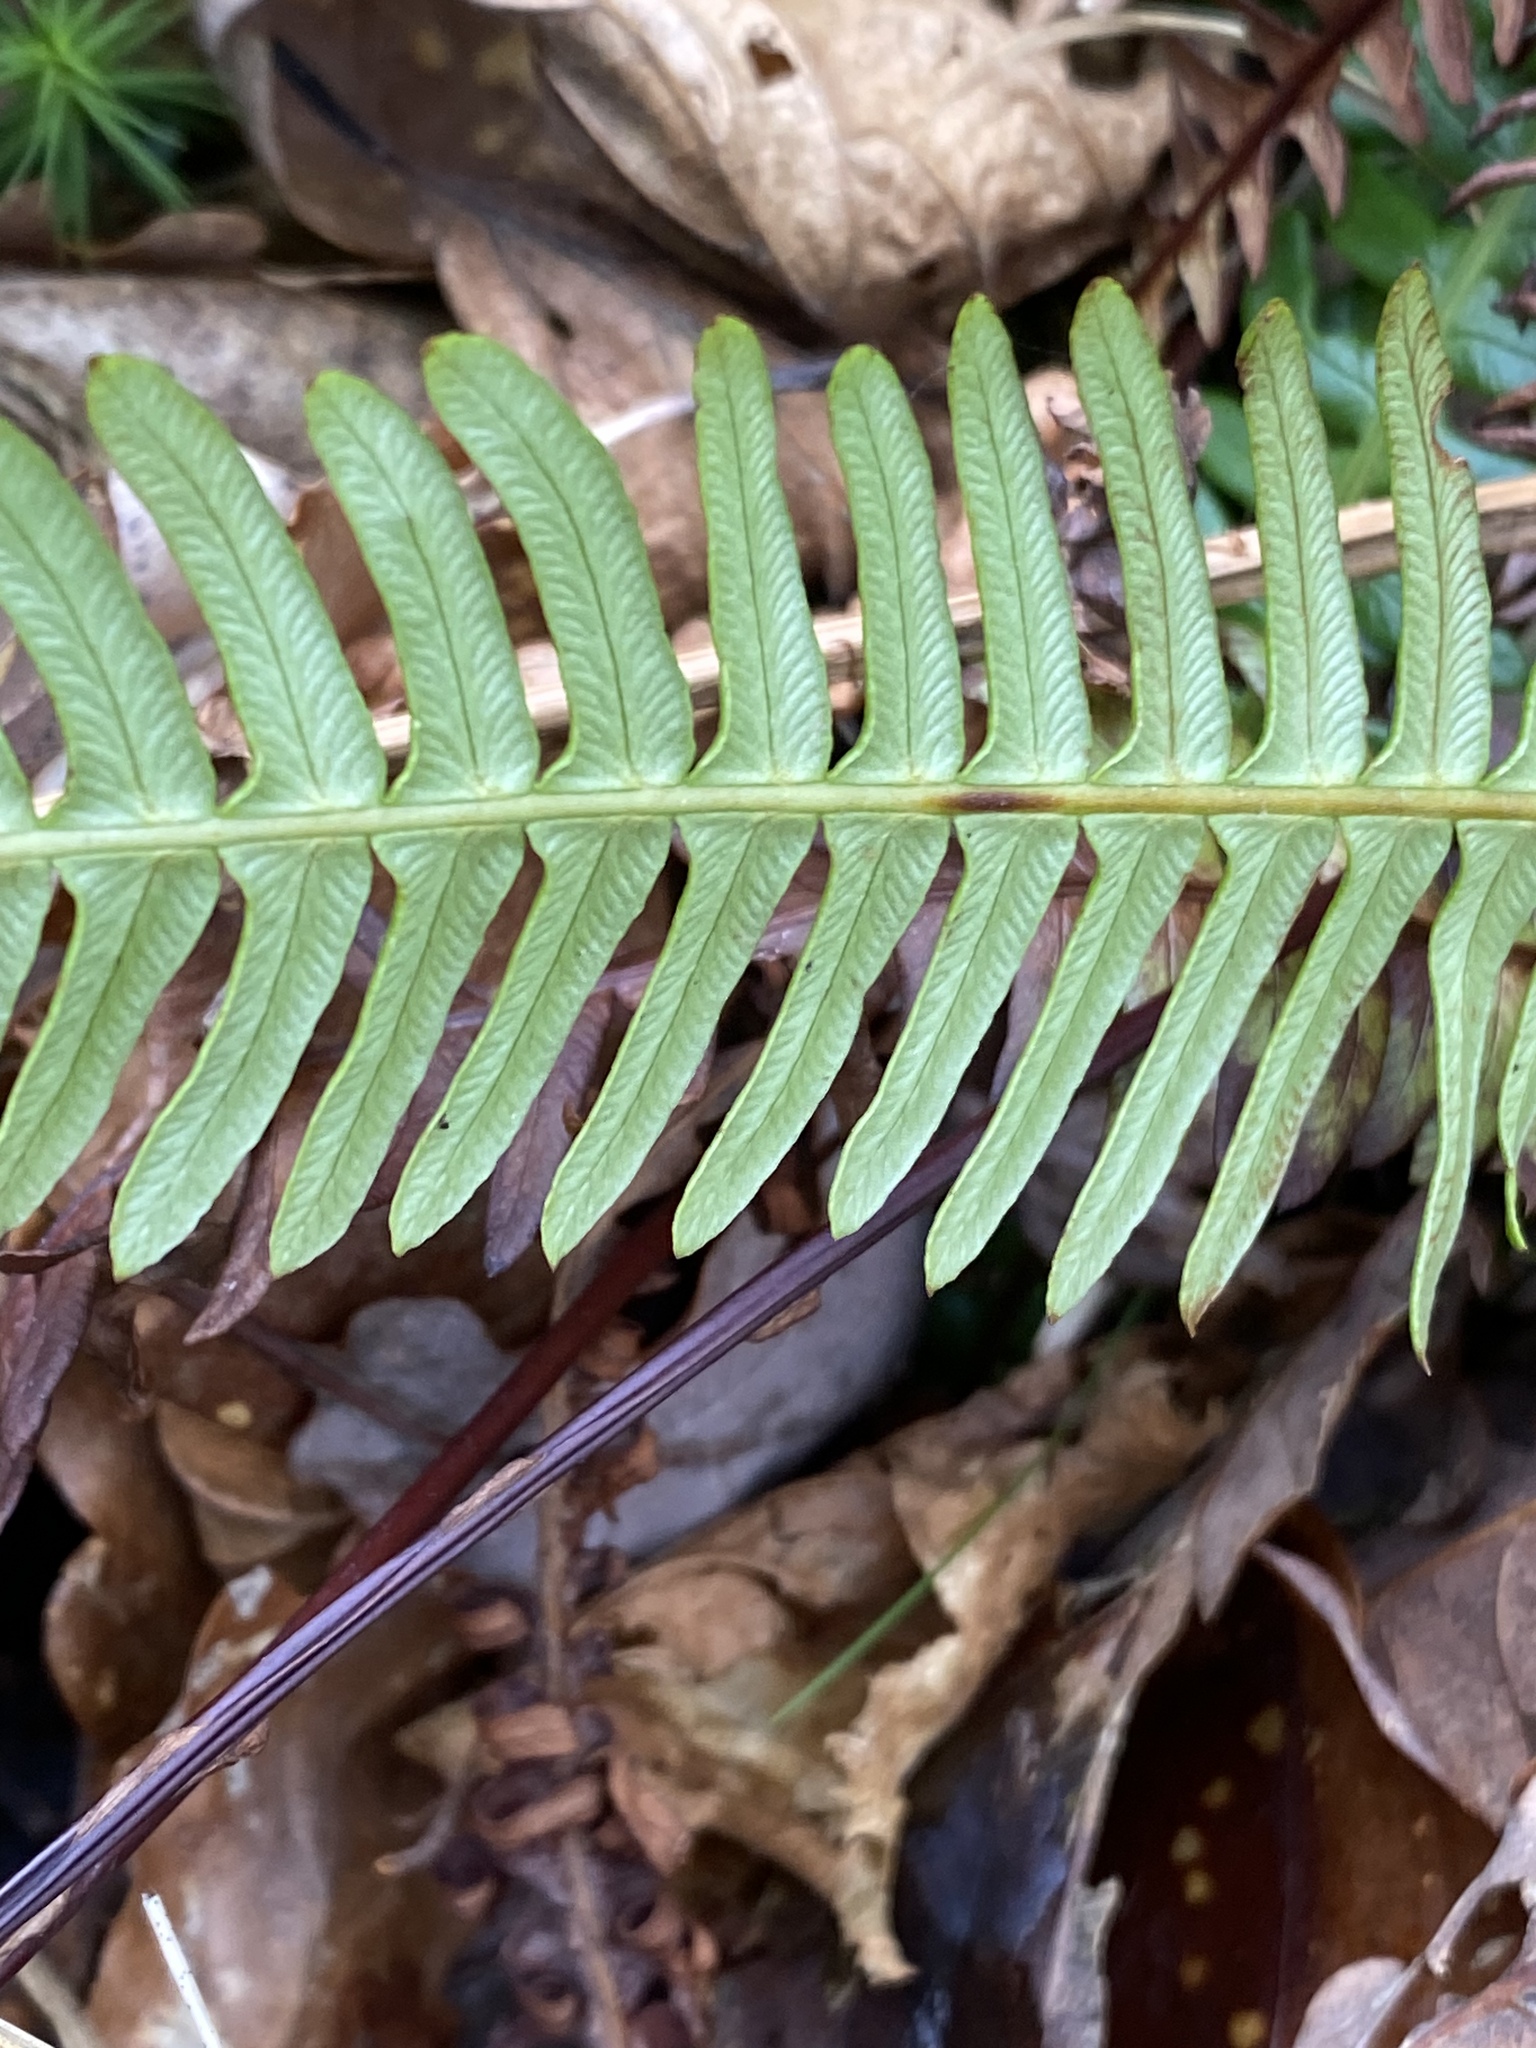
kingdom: Plantae
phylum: Tracheophyta
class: Polypodiopsida
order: Polypodiales
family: Blechnaceae
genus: Struthiopteris
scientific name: Struthiopteris spicant
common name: Deer fern
